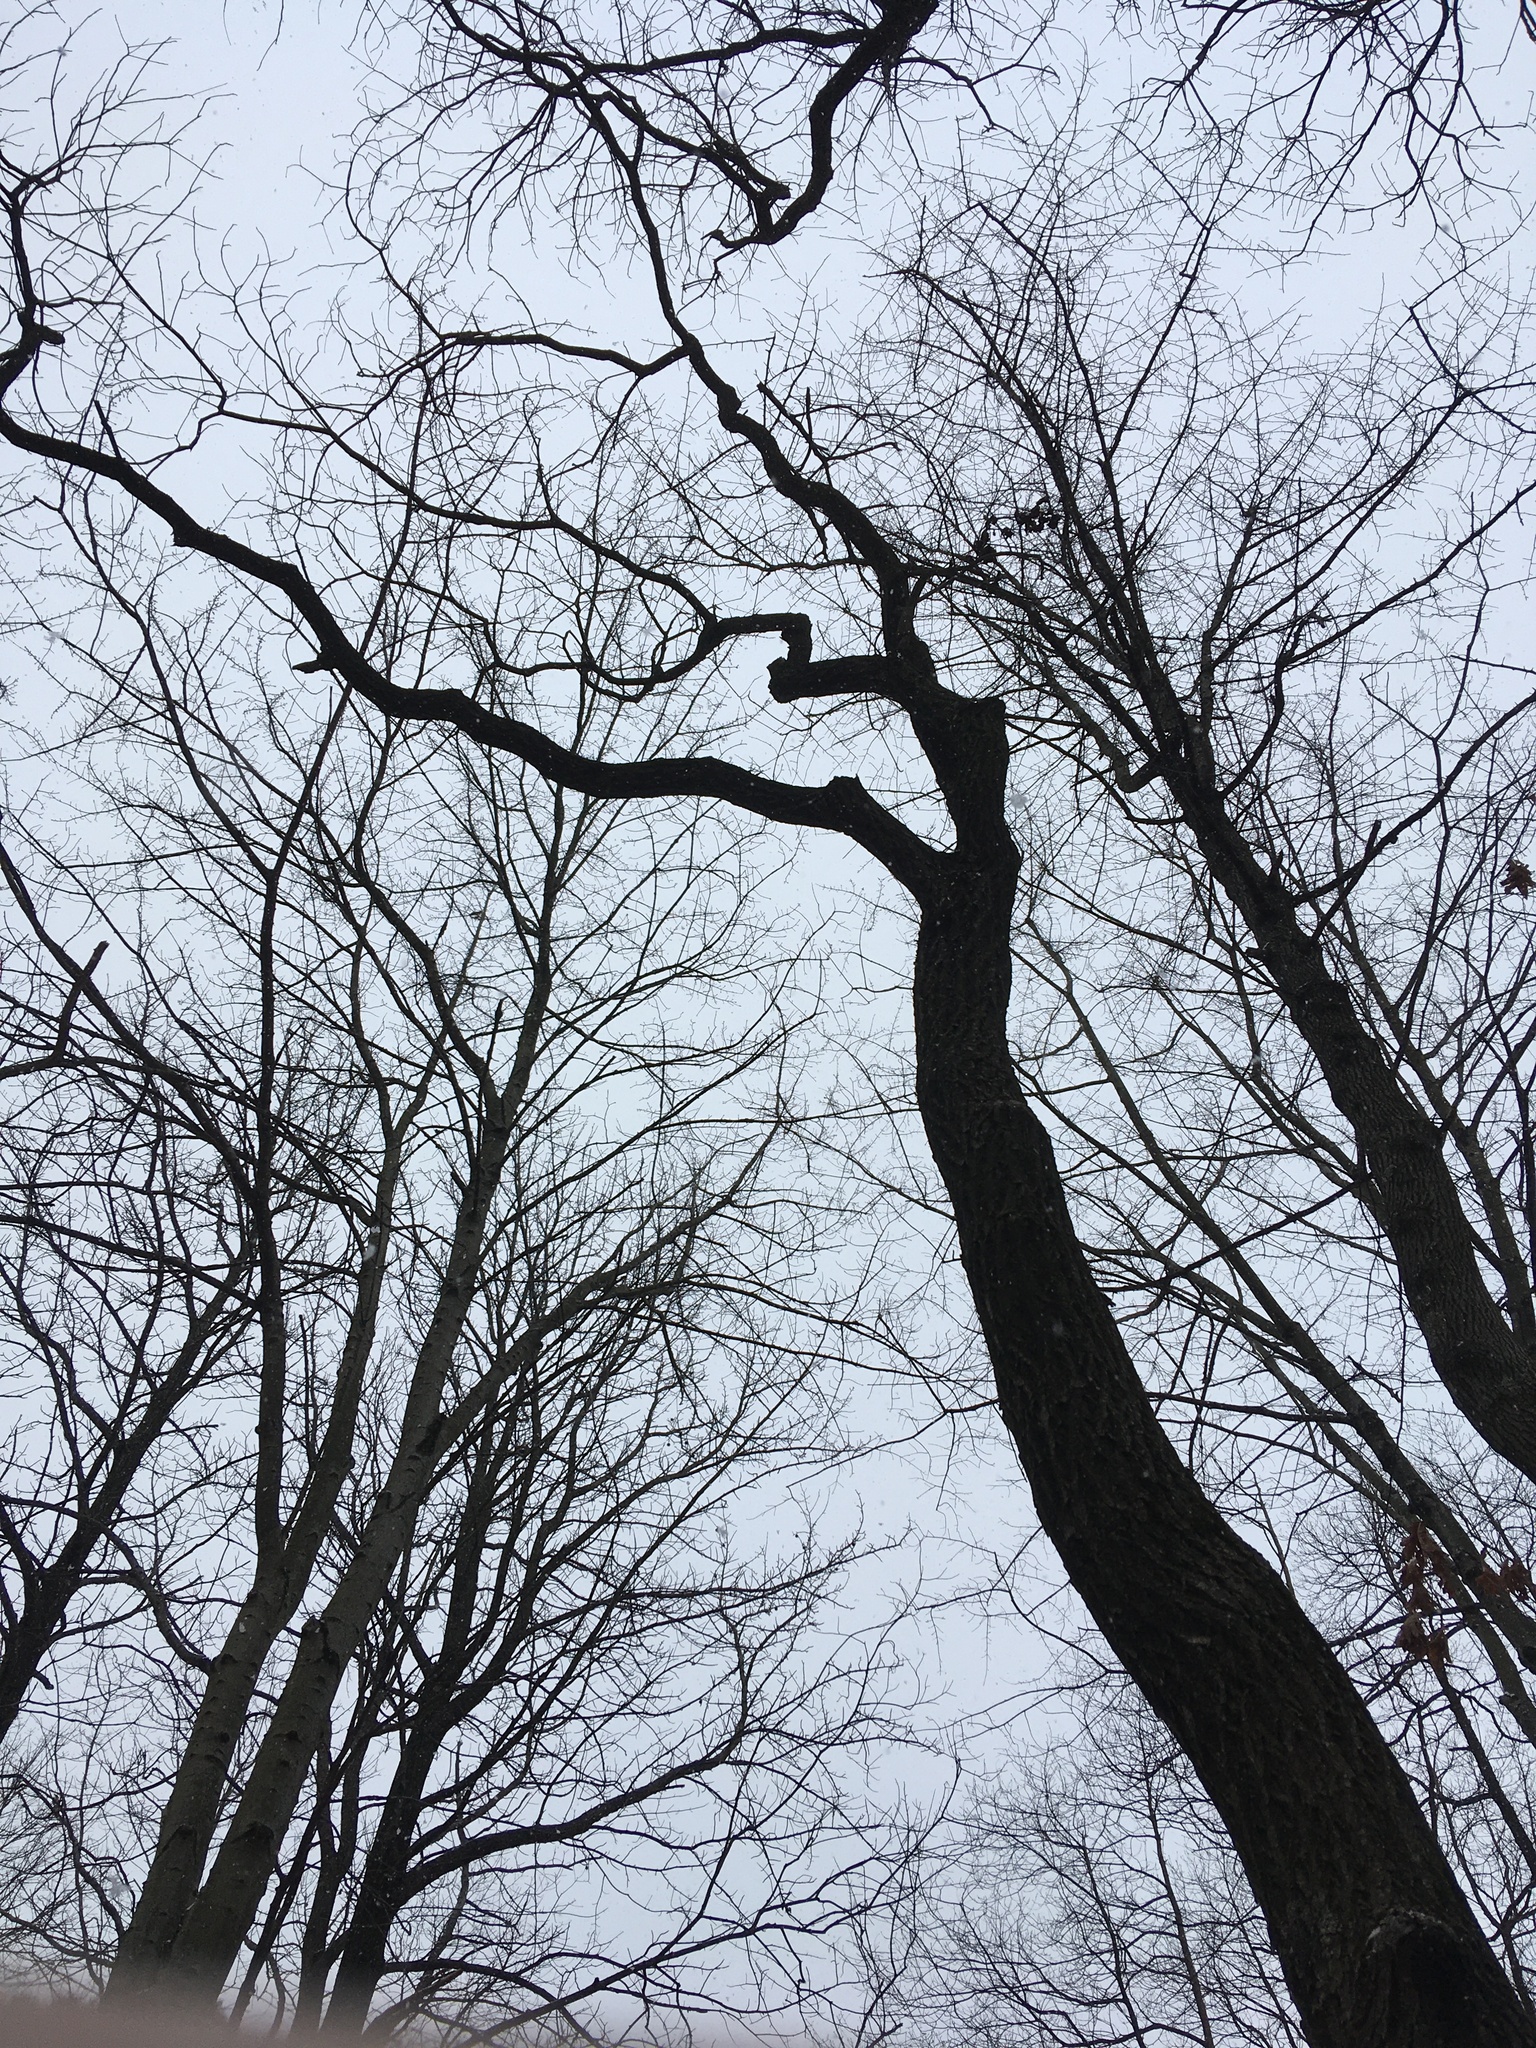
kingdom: Plantae
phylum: Tracheophyta
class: Magnoliopsida
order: Laurales
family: Lauraceae
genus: Sassafras
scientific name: Sassafras albidum
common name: Sassafras
